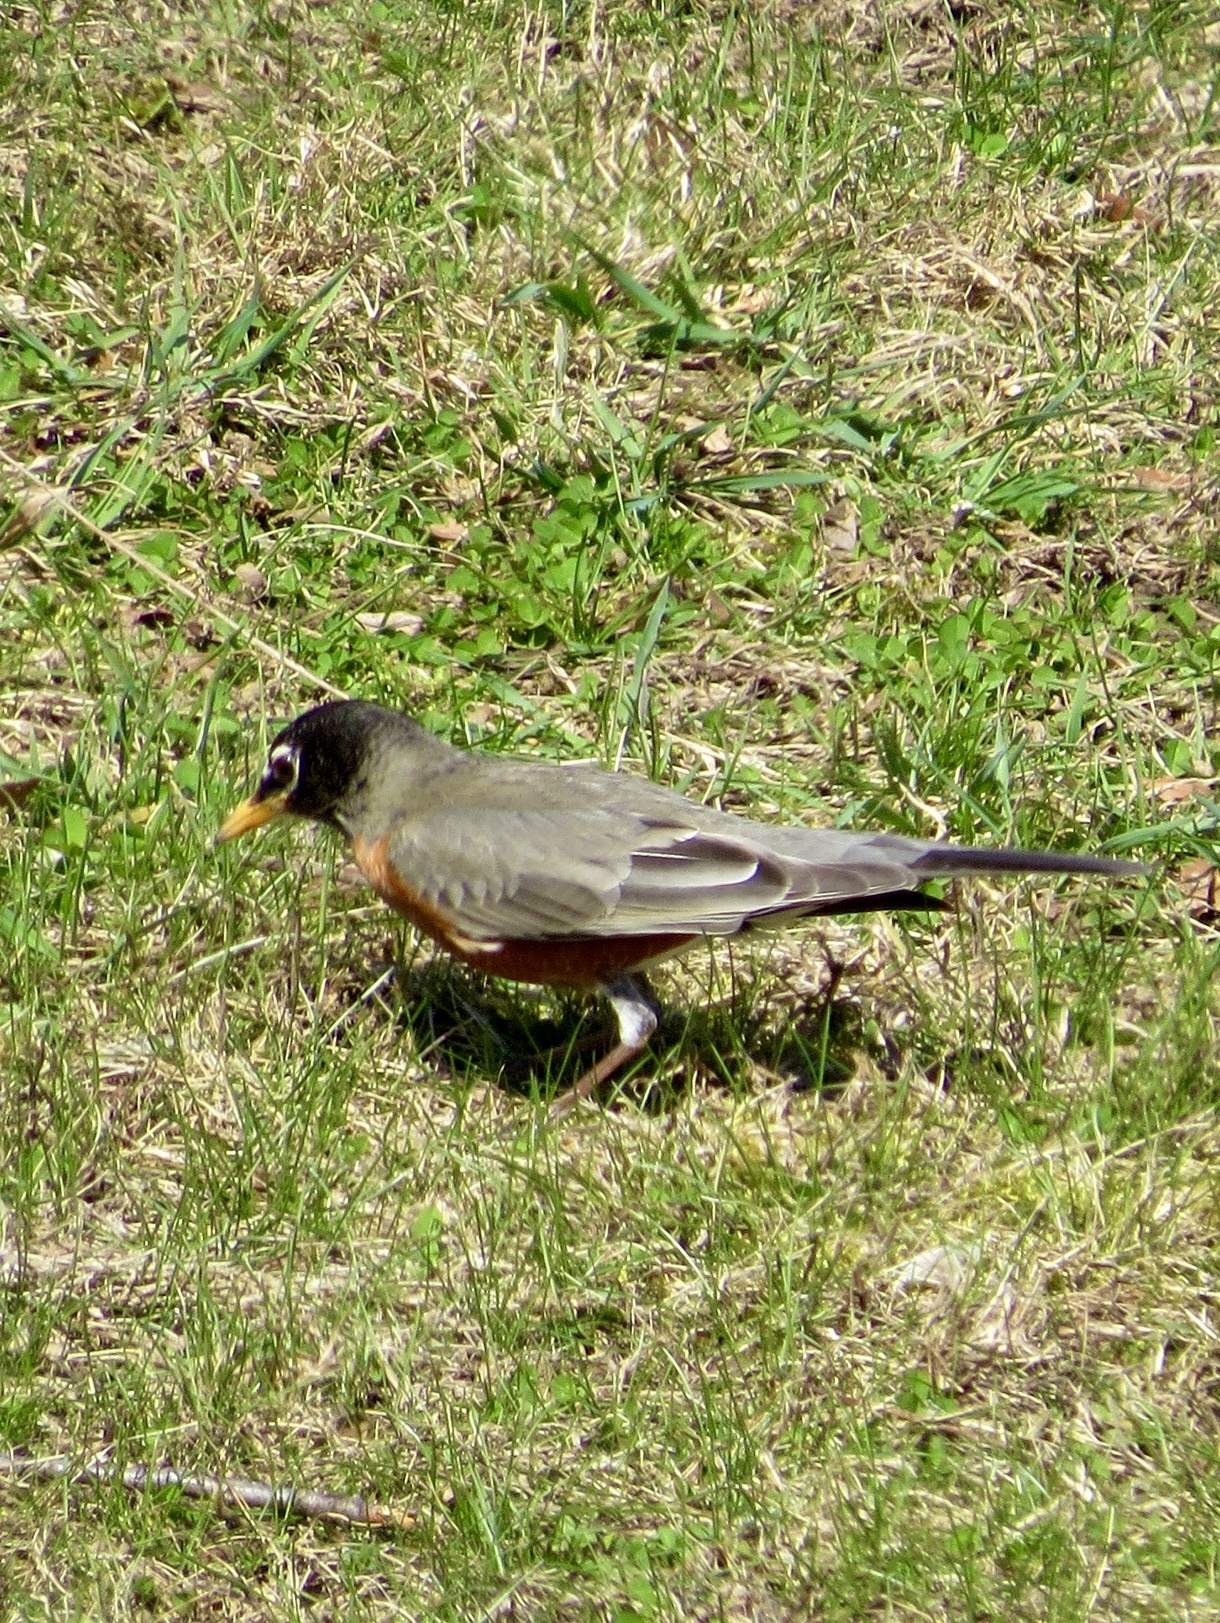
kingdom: Animalia
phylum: Chordata
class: Aves
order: Passeriformes
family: Turdidae
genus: Turdus
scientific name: Turdus migratorius
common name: American robin
